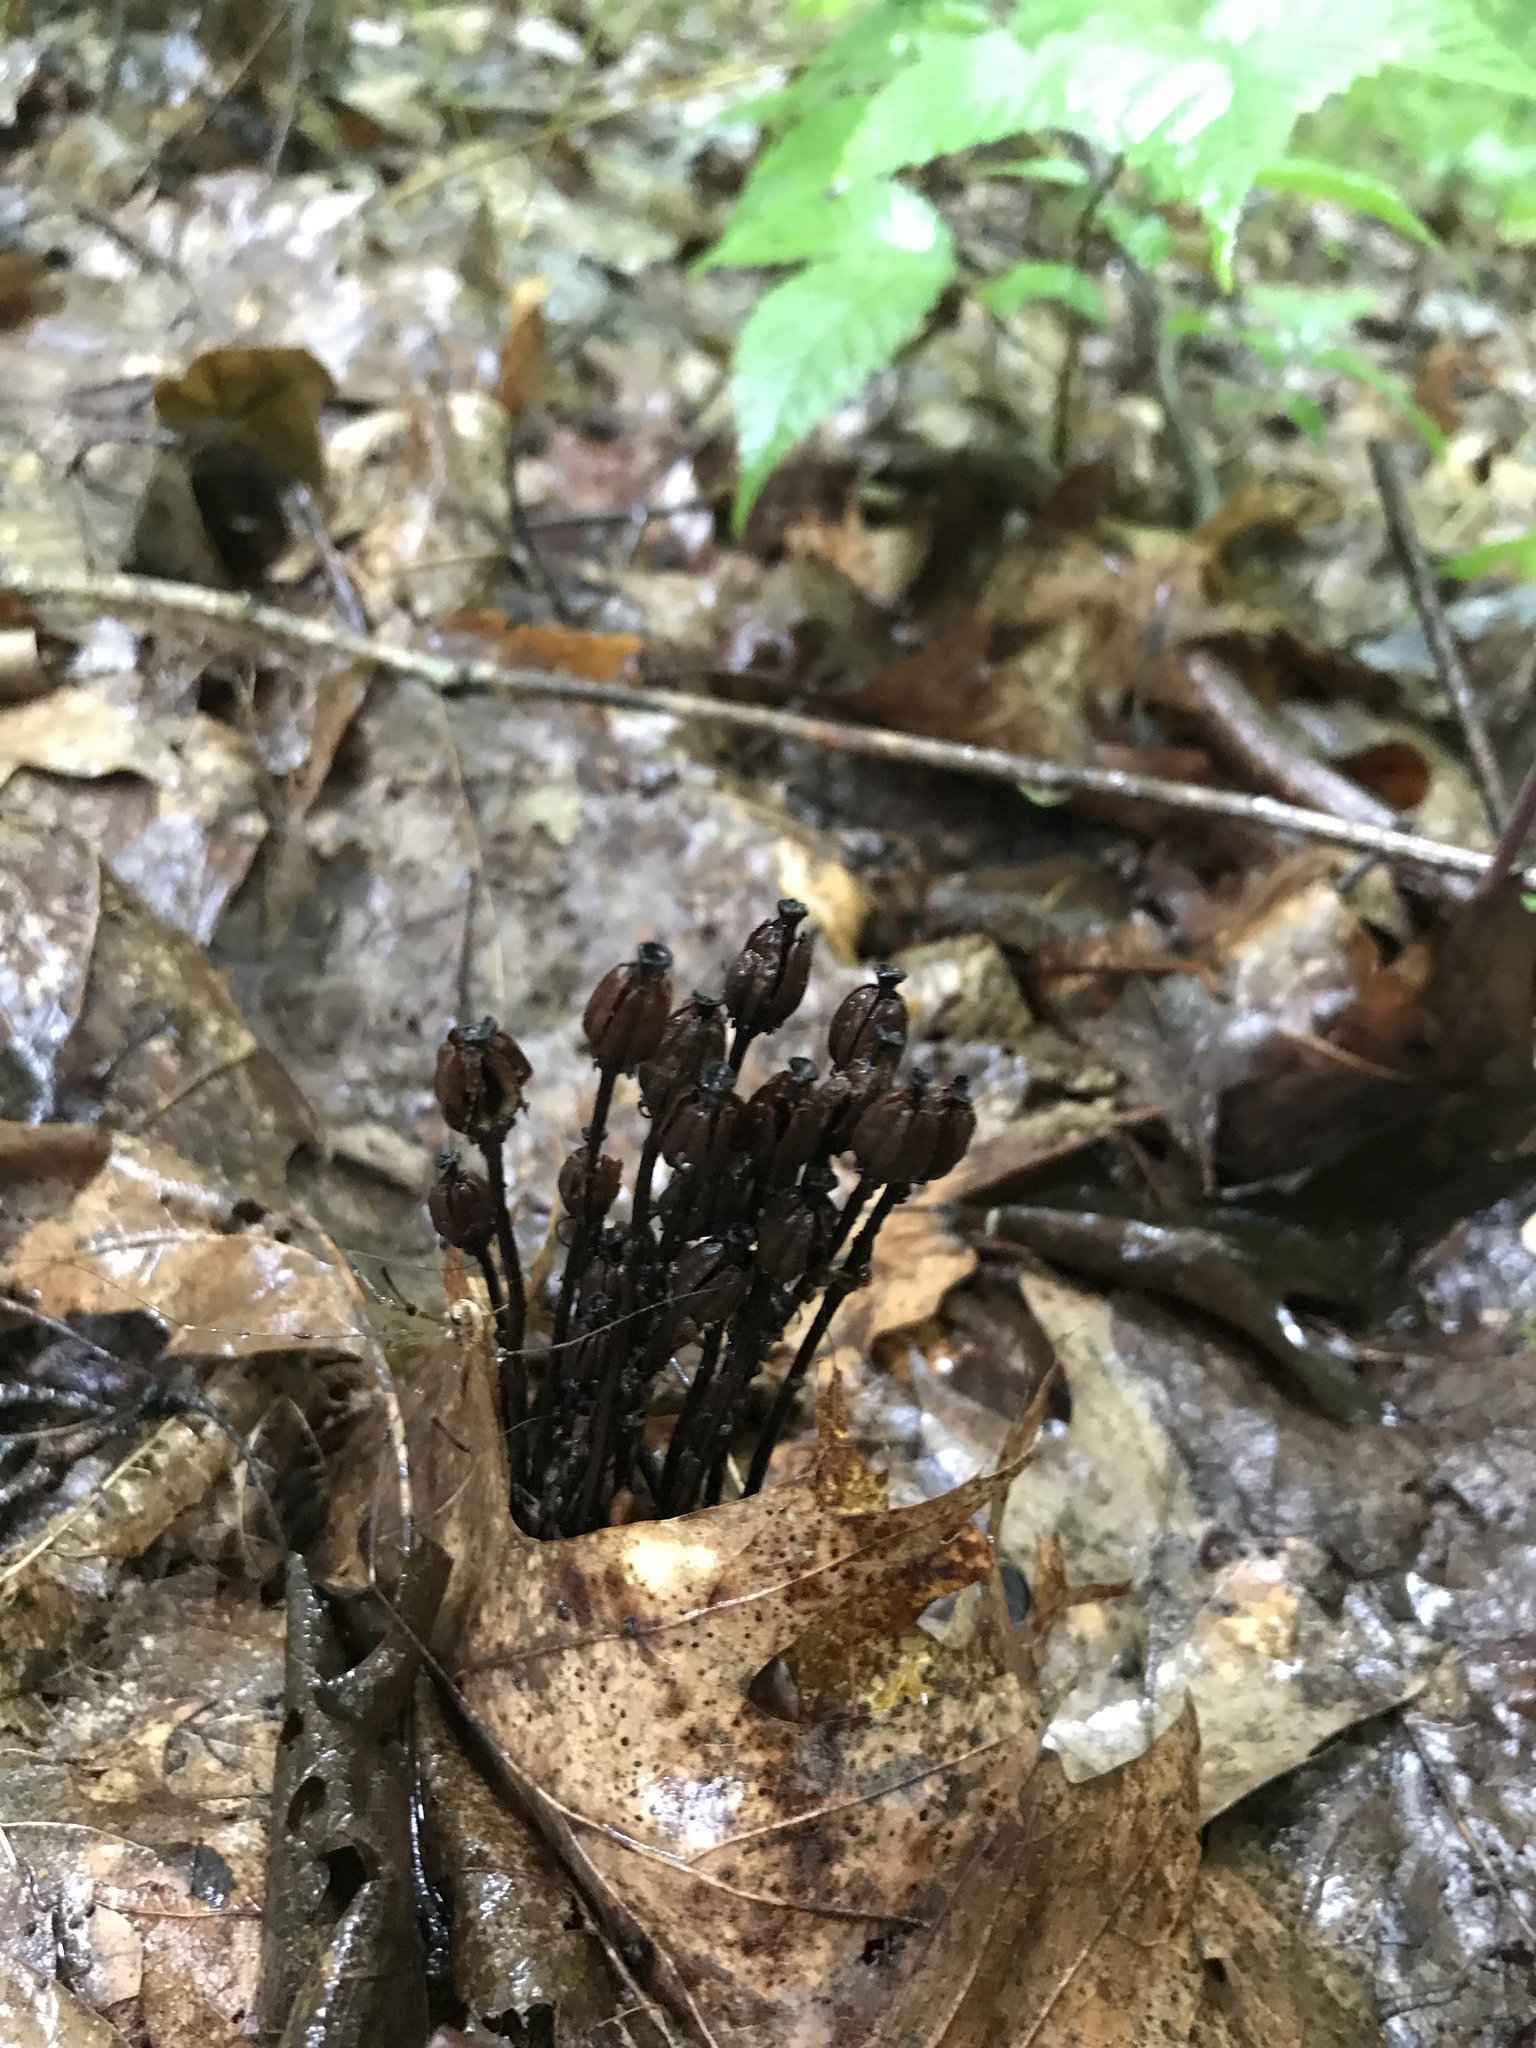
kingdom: Plantae
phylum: Tracheophyta
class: Magnoliopsida
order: Ericales
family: Ericaceae
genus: Monotropa
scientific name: Monotropa uniflora
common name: Convulsion root
